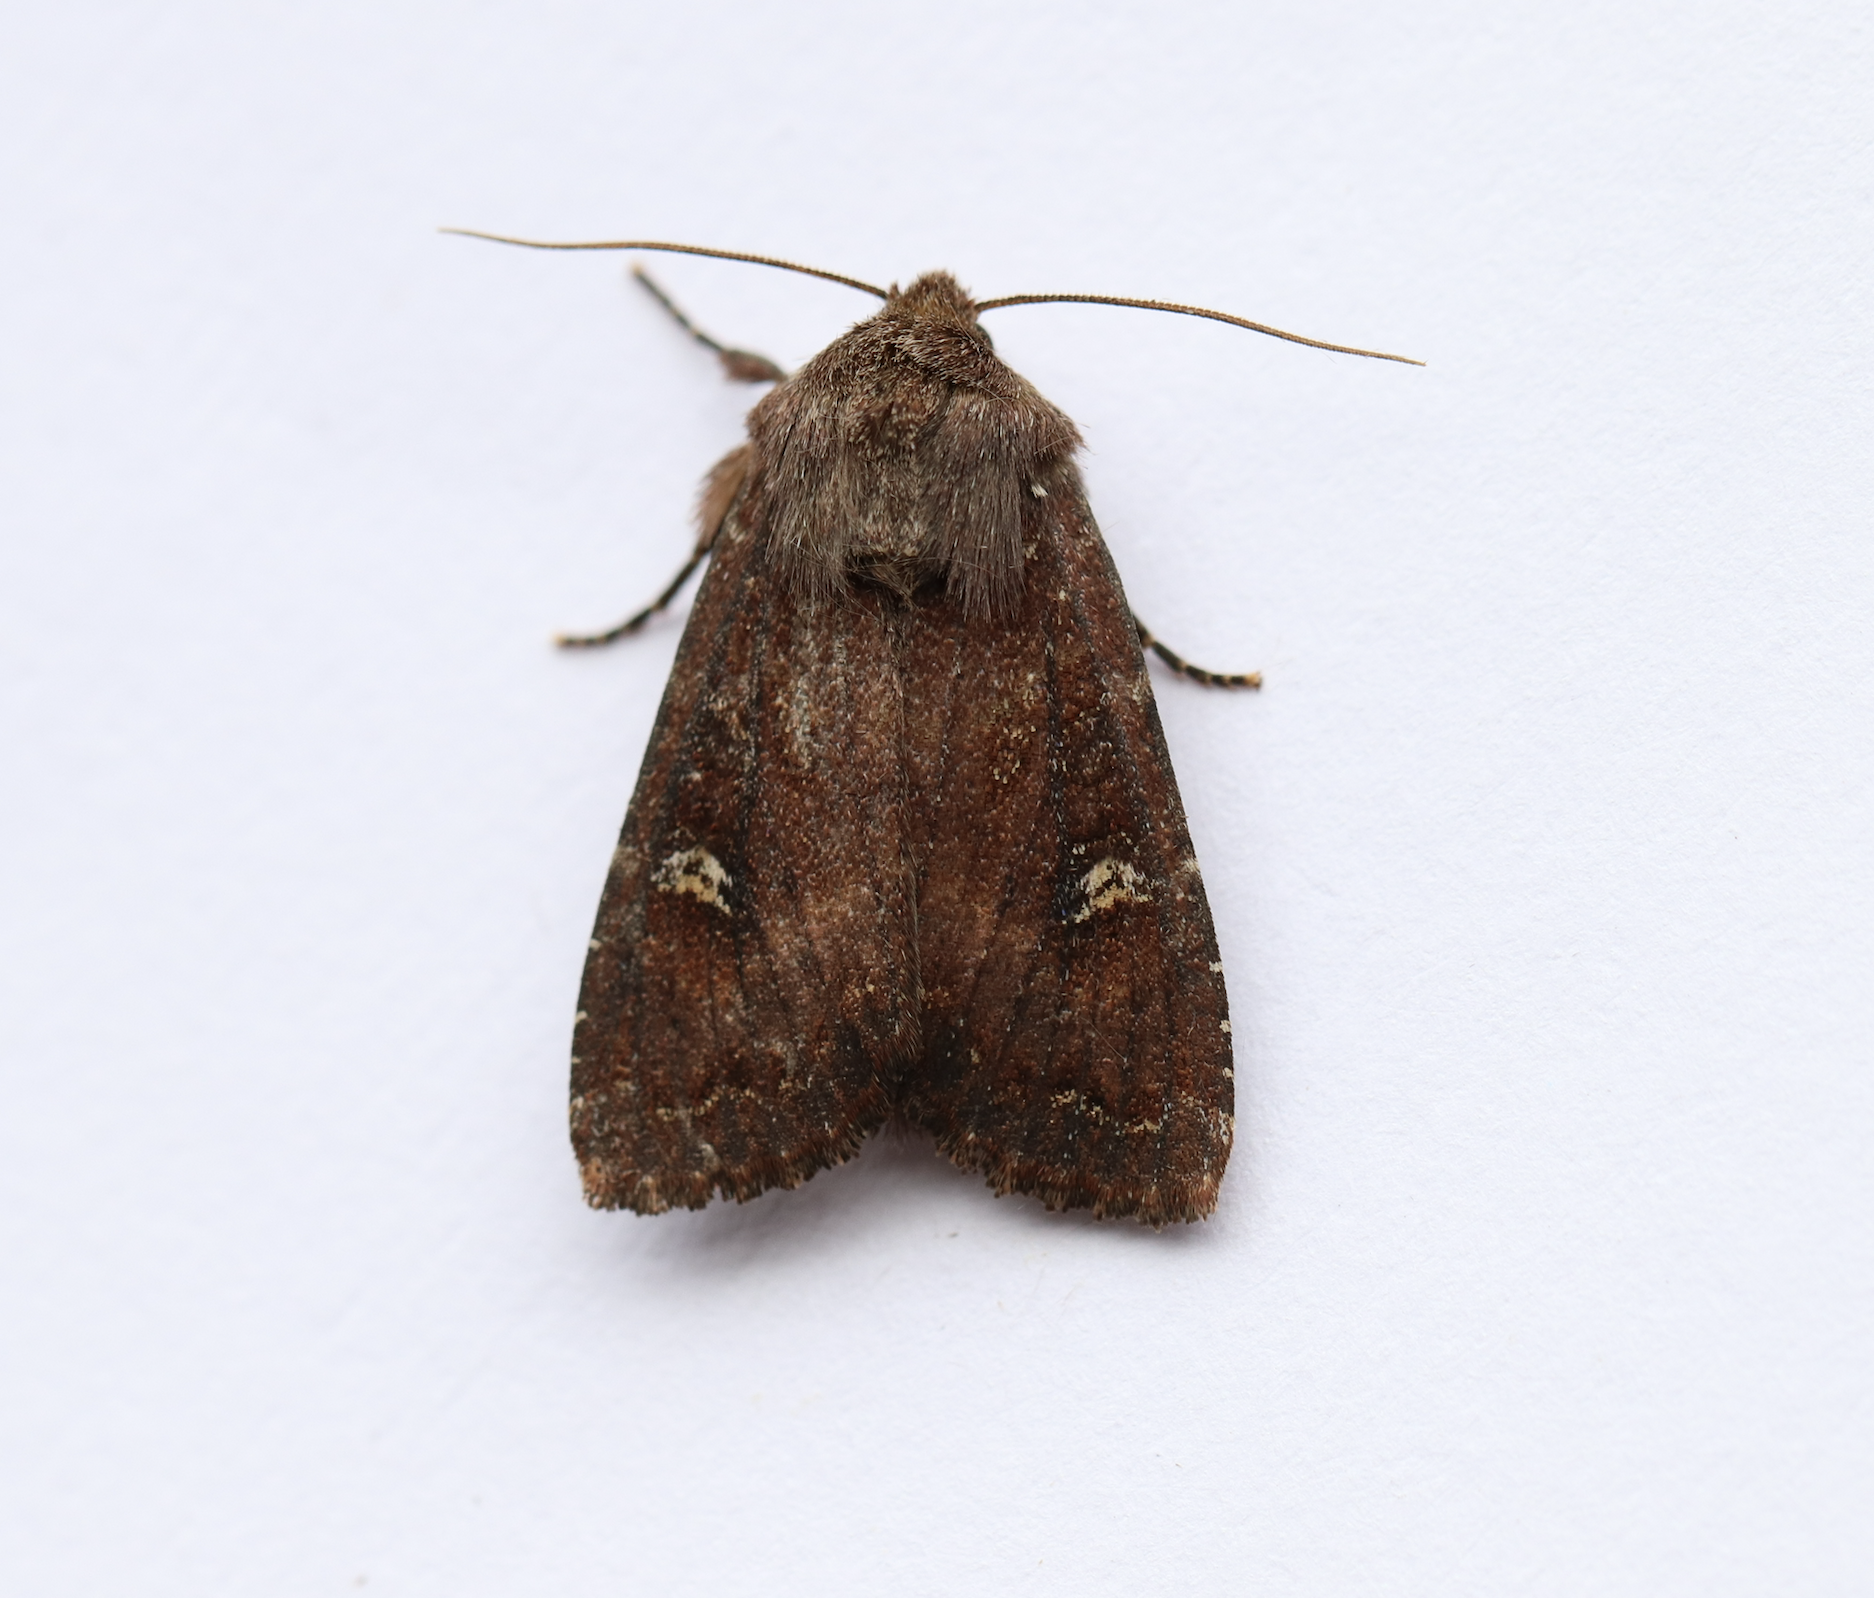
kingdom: Animalia
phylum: Arthropoda
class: Insecta
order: Lepidoptera
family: Noctuidae
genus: Apamea
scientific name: Apamea cogitata
